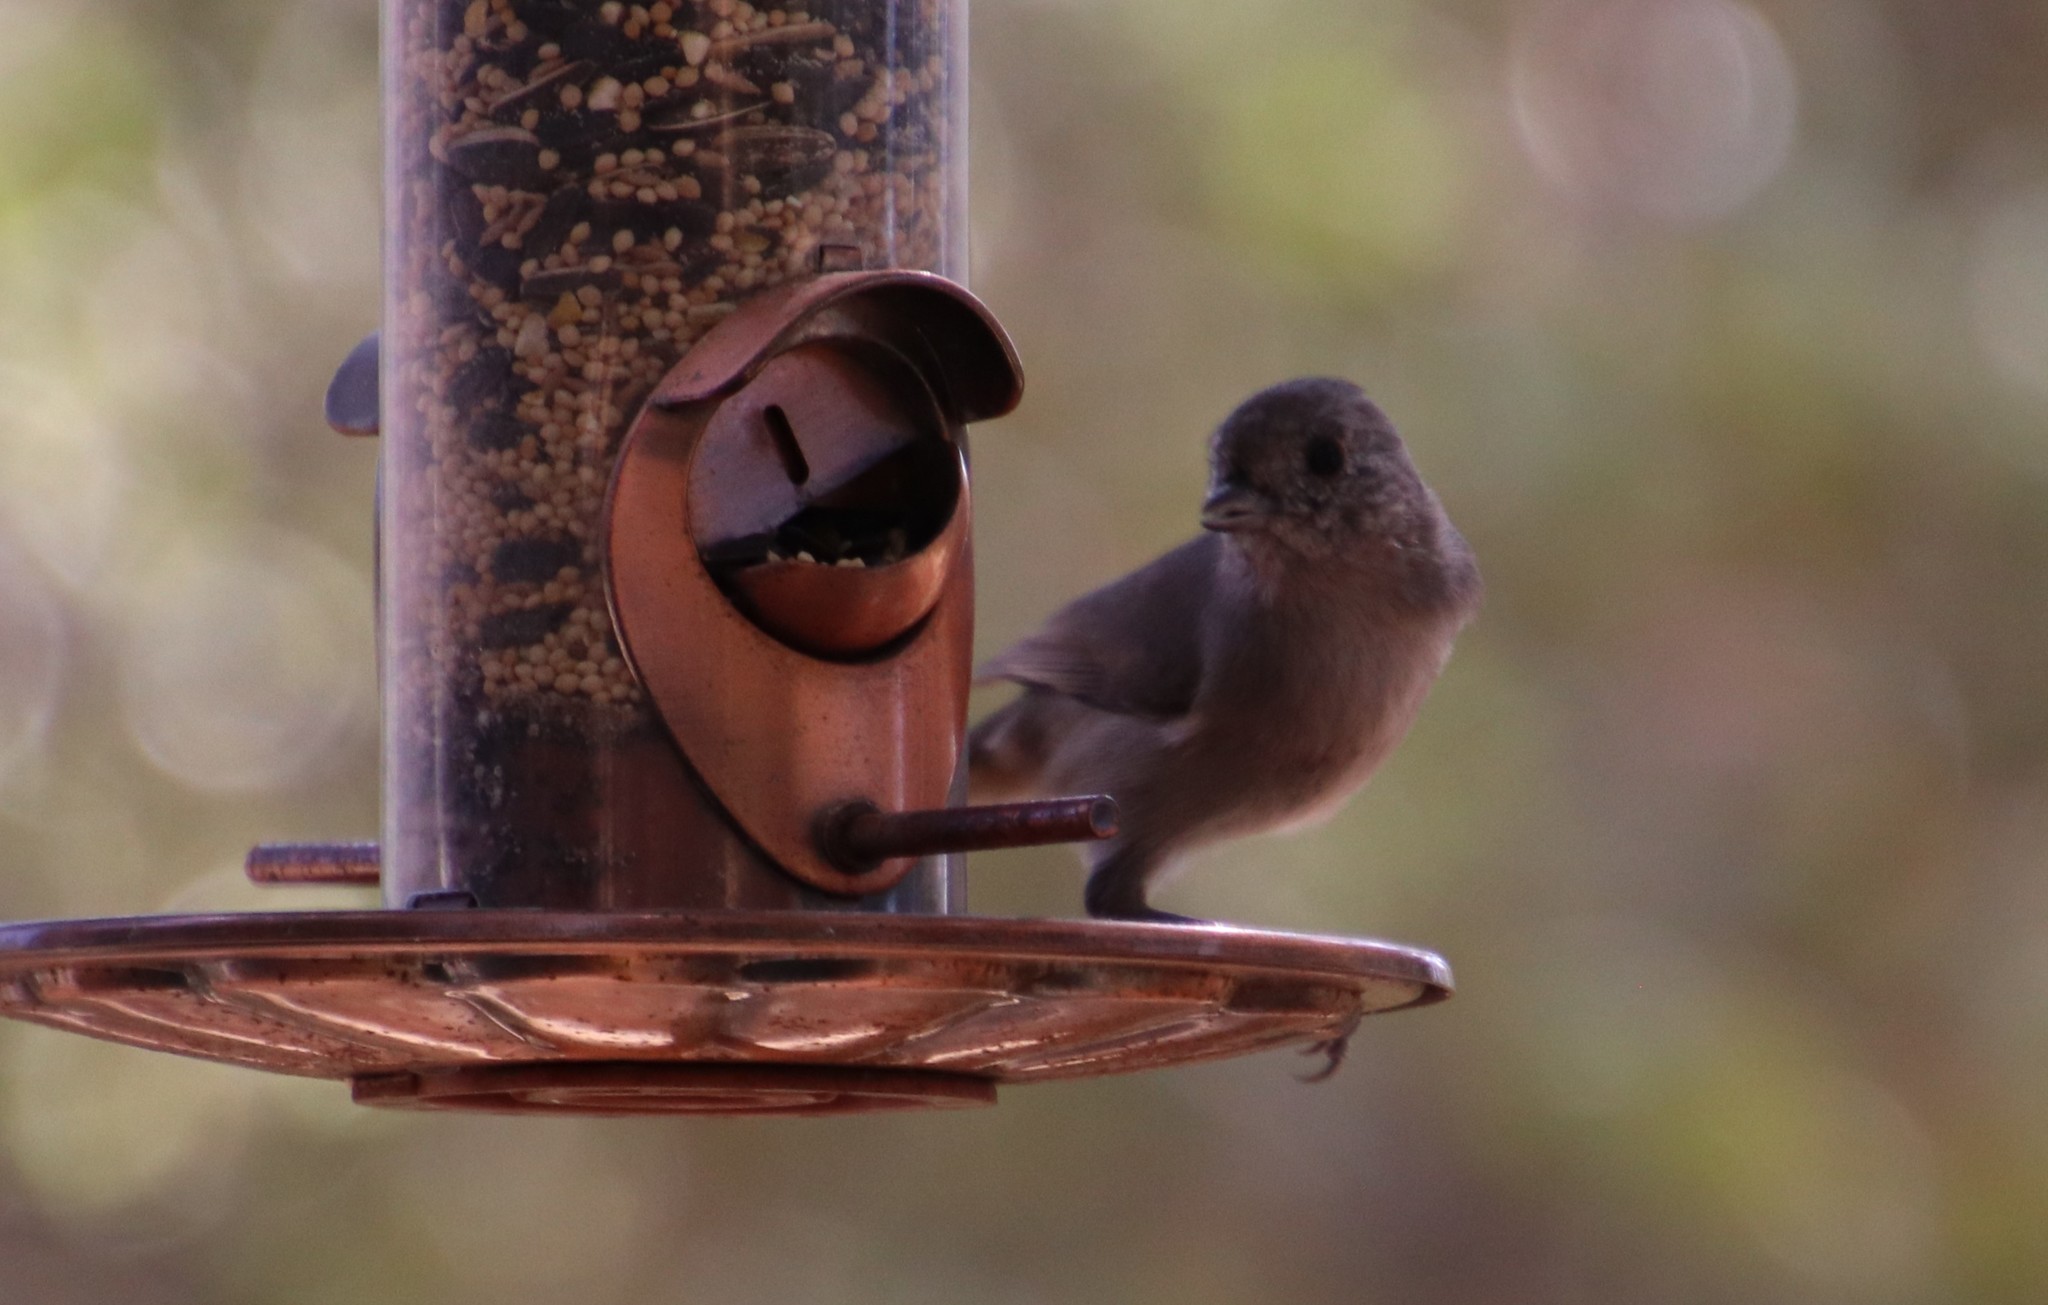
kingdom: Animalia
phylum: Chordata
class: Aves
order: Passeriformes
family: Paridae
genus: Baeolophus
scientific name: Baeolophus inornatus
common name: Oak titmouse
